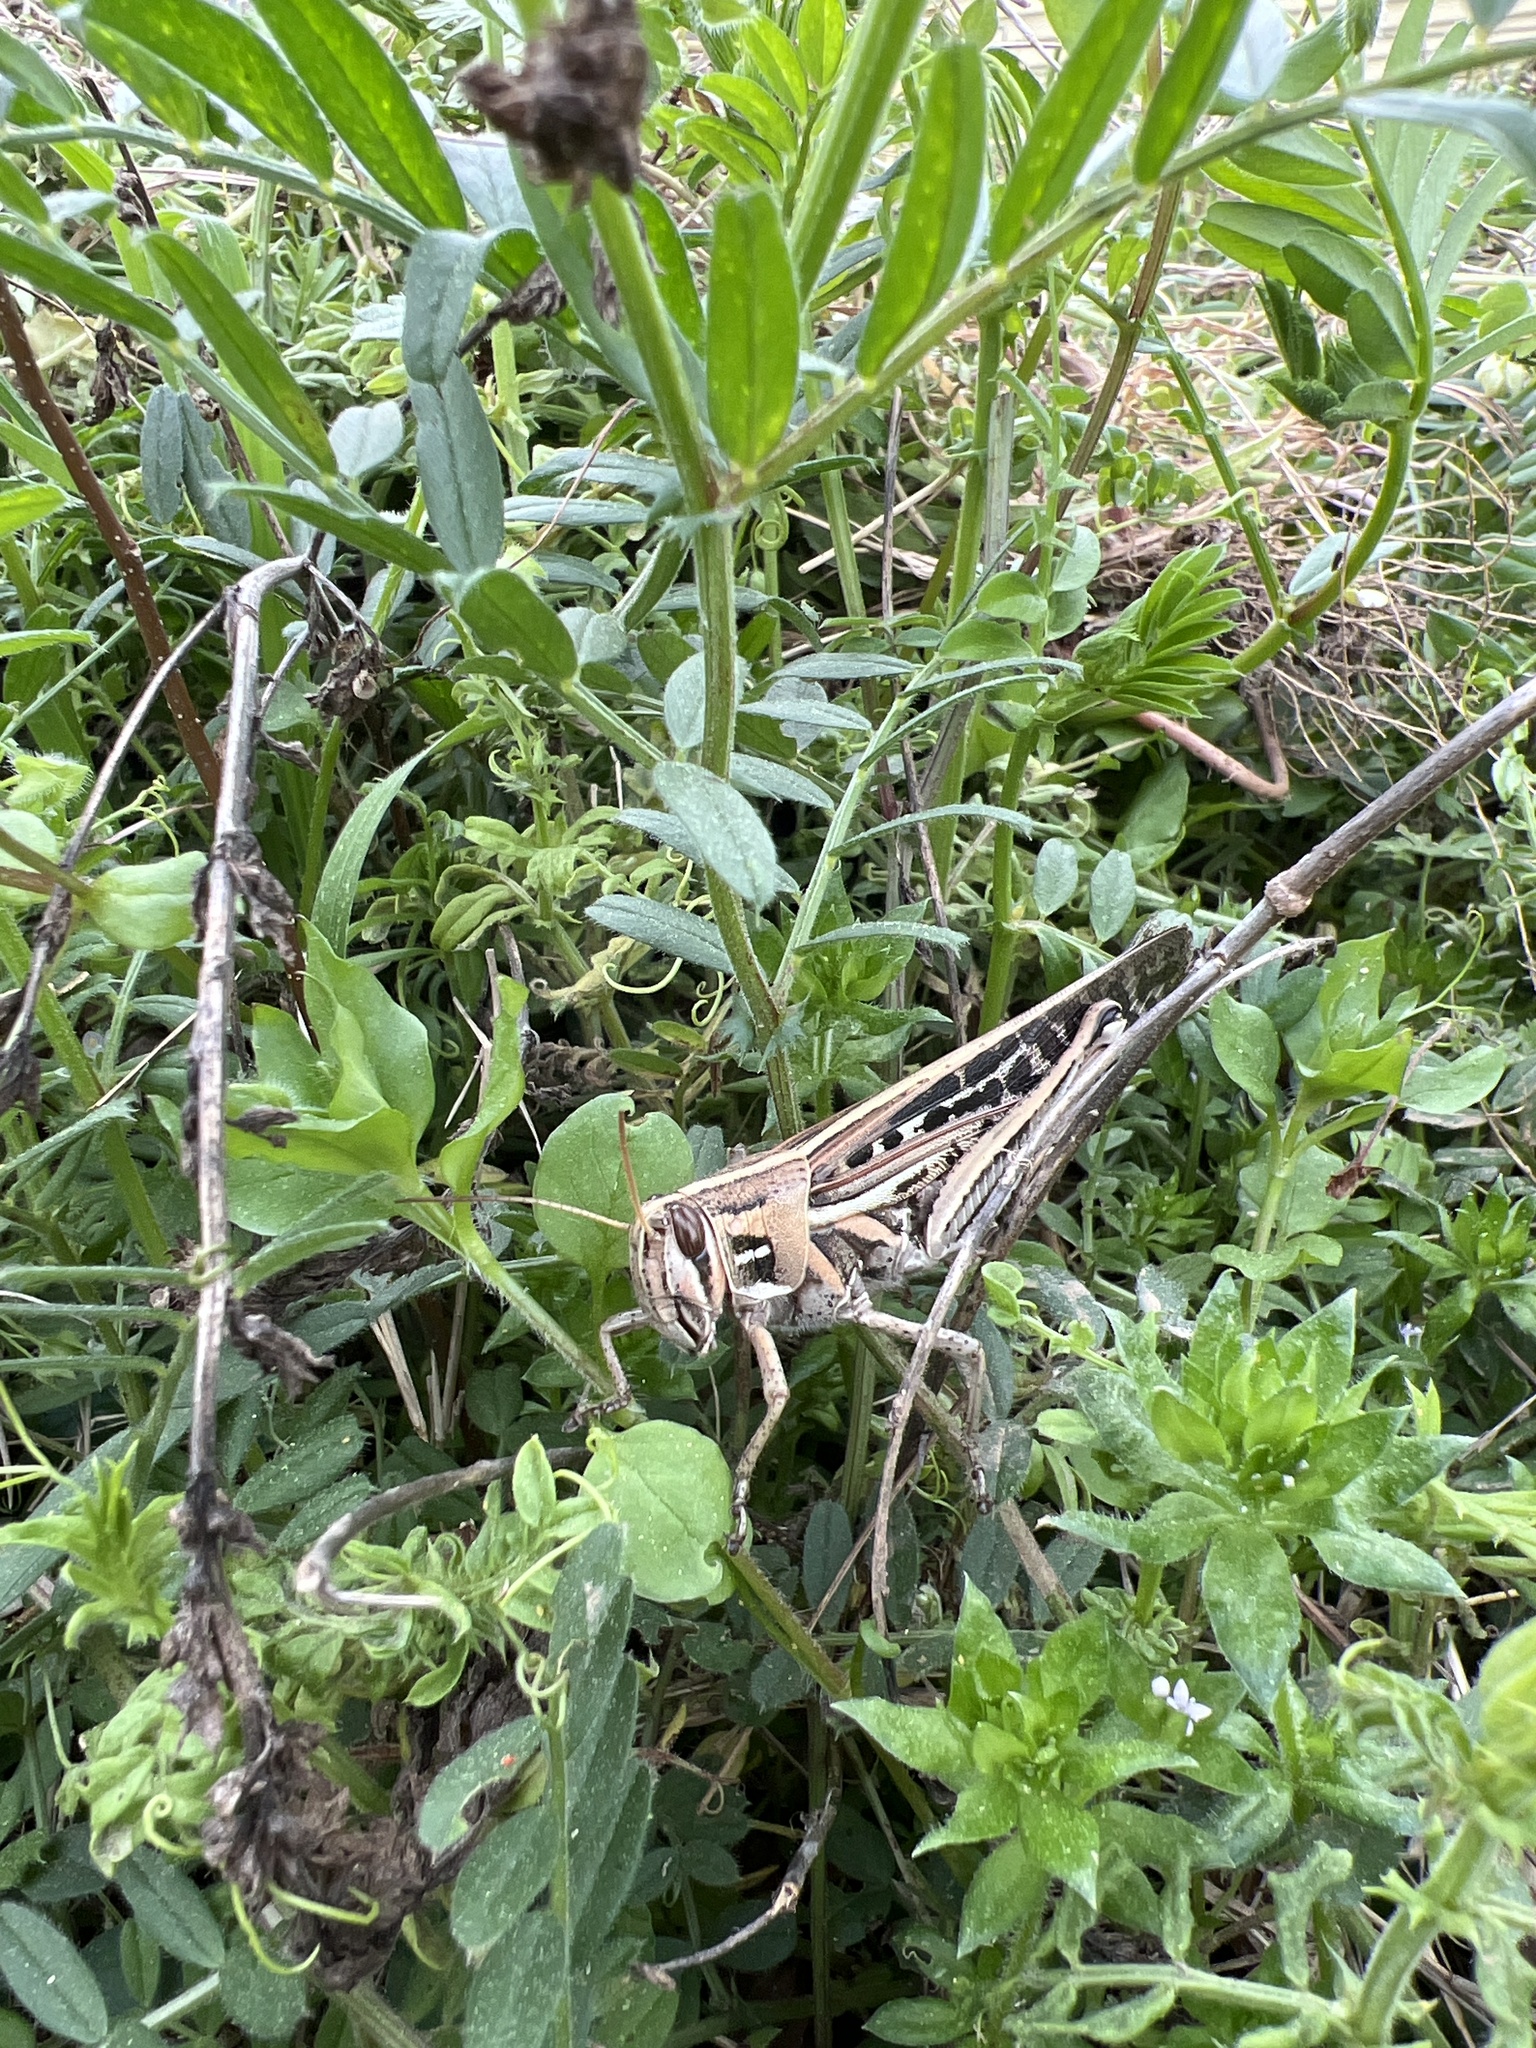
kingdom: Animalia
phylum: Arthropoda
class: Insecta
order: Orthoptera
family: Acrididae
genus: Schistocerca
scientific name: Schistocerca americana
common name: American bird locust
